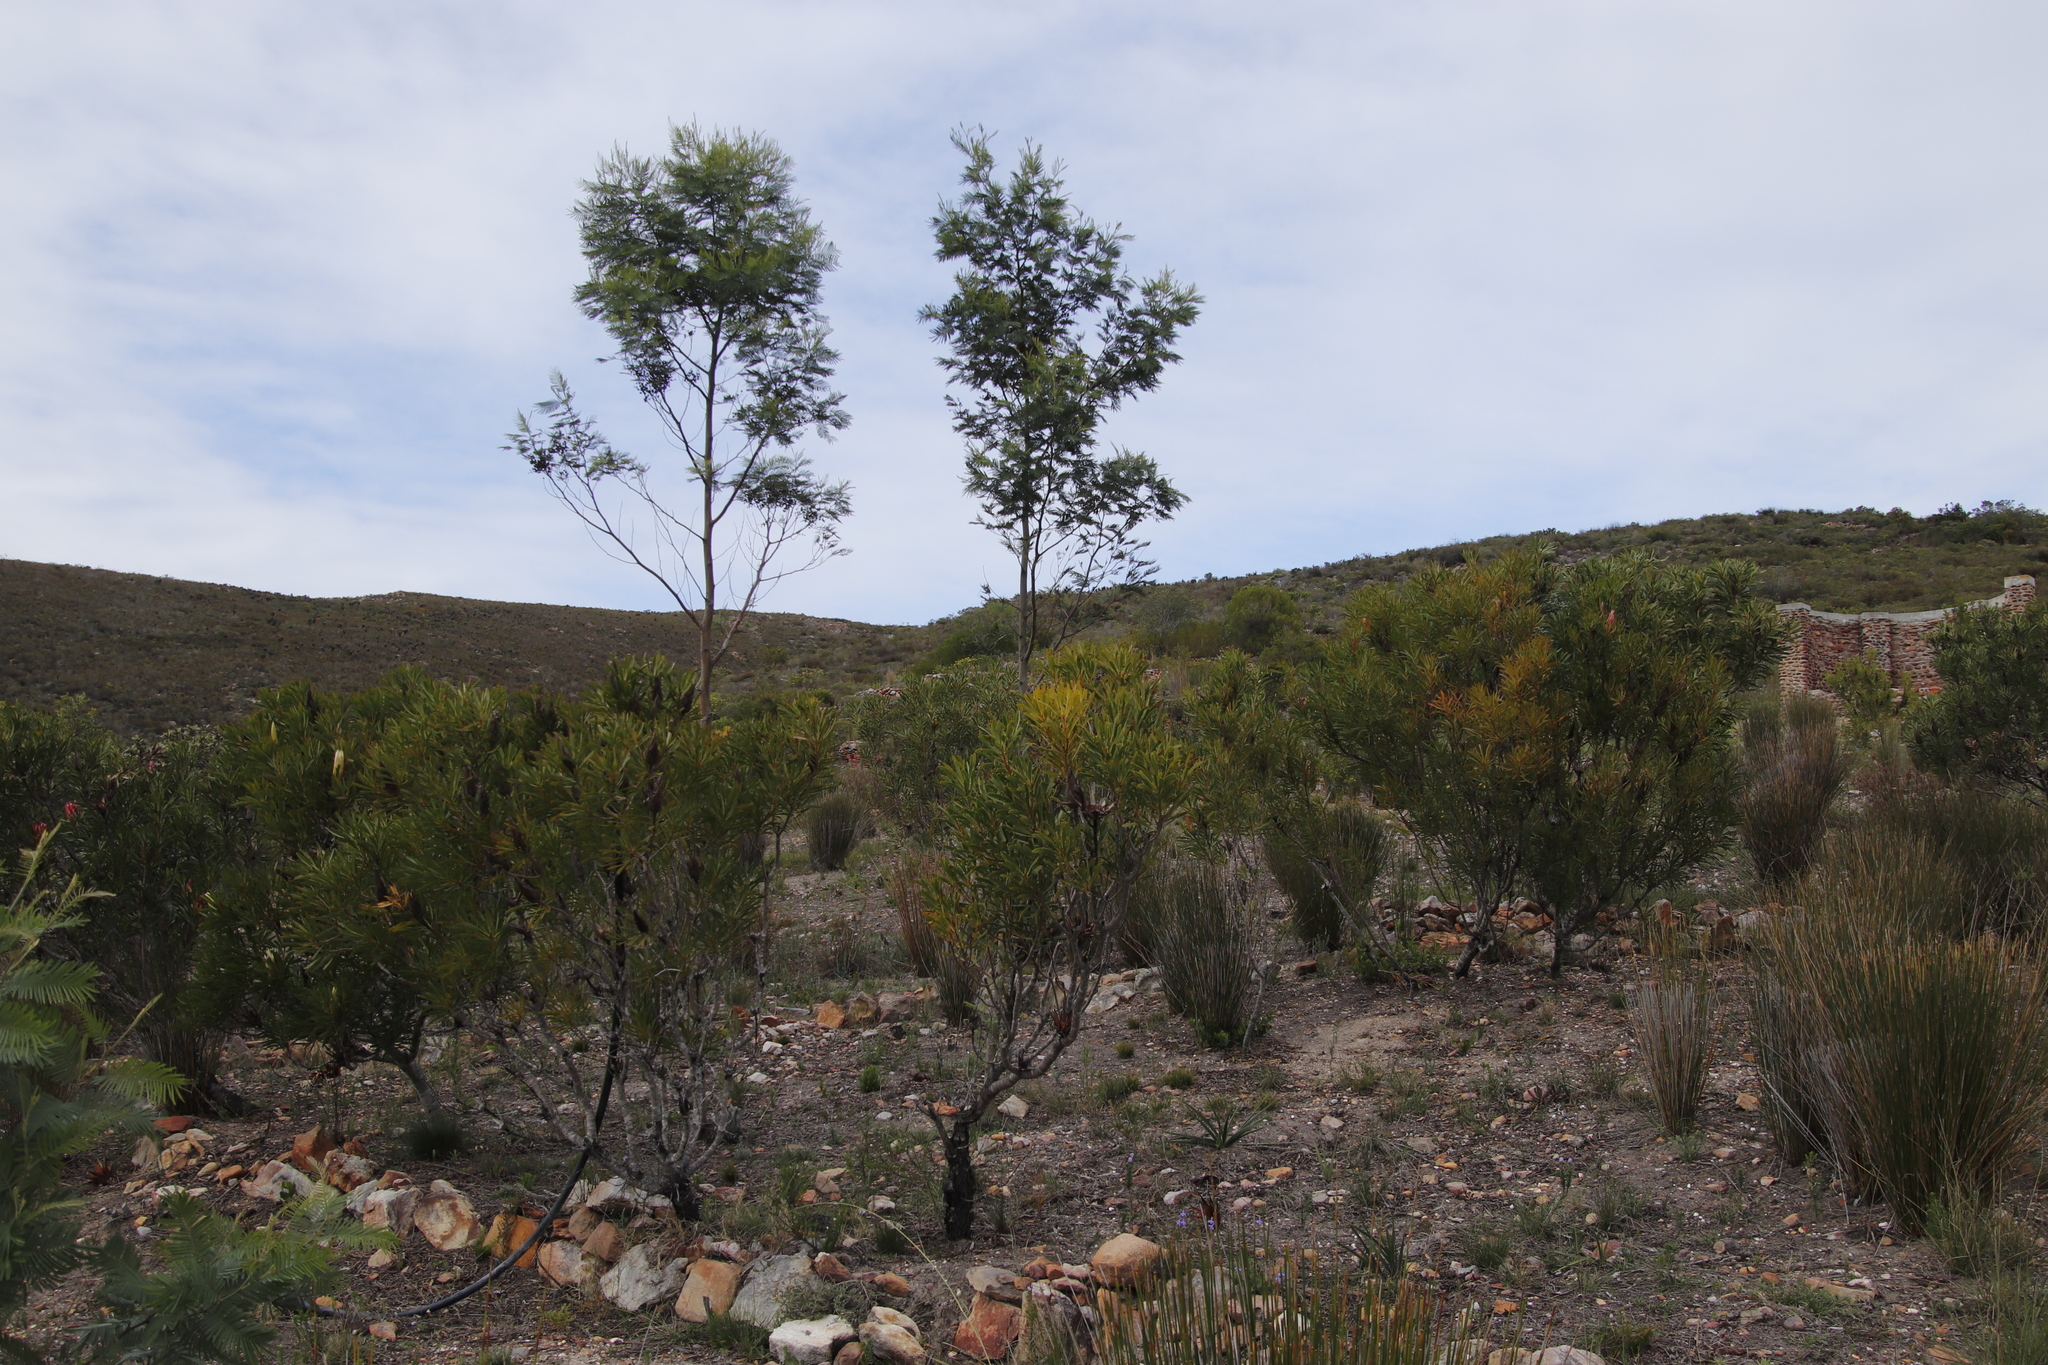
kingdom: Plantae
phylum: Tracheophyta
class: Magnoliopsida
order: Proteales
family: Proteaceae
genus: Protea
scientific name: Protea repens
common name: Sugarbush
